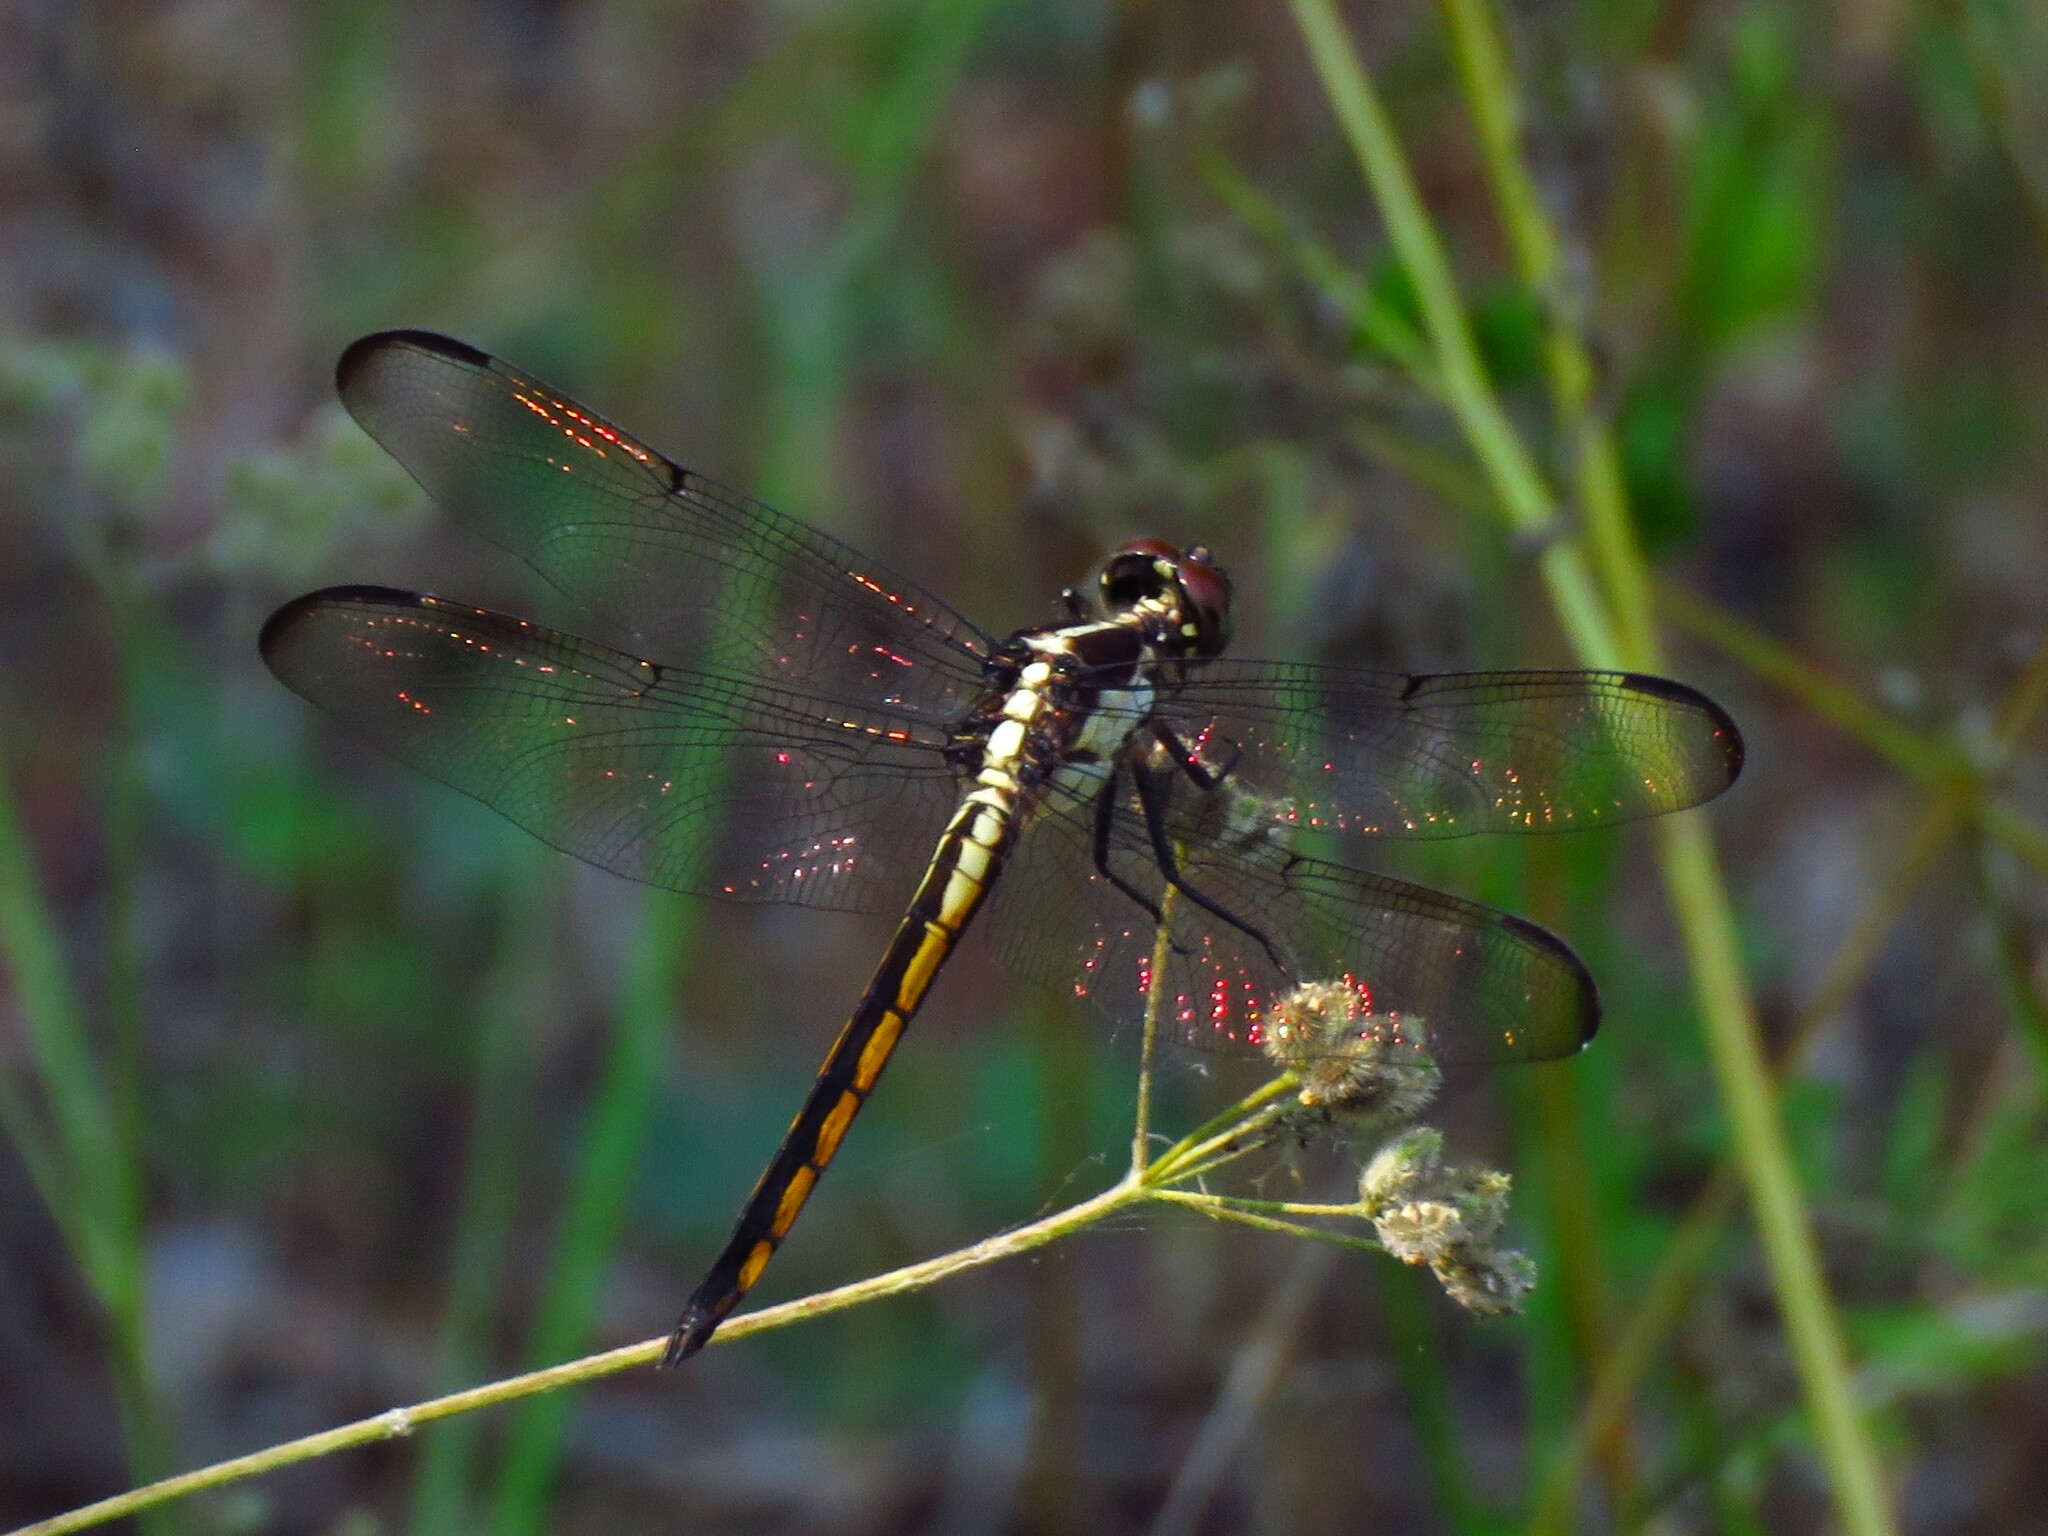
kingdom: Animalia
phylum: Arthropoda
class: Insecta
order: Odonata
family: Libellulidae
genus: Libellula
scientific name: Libellula incesta
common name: Slaty skimmer
